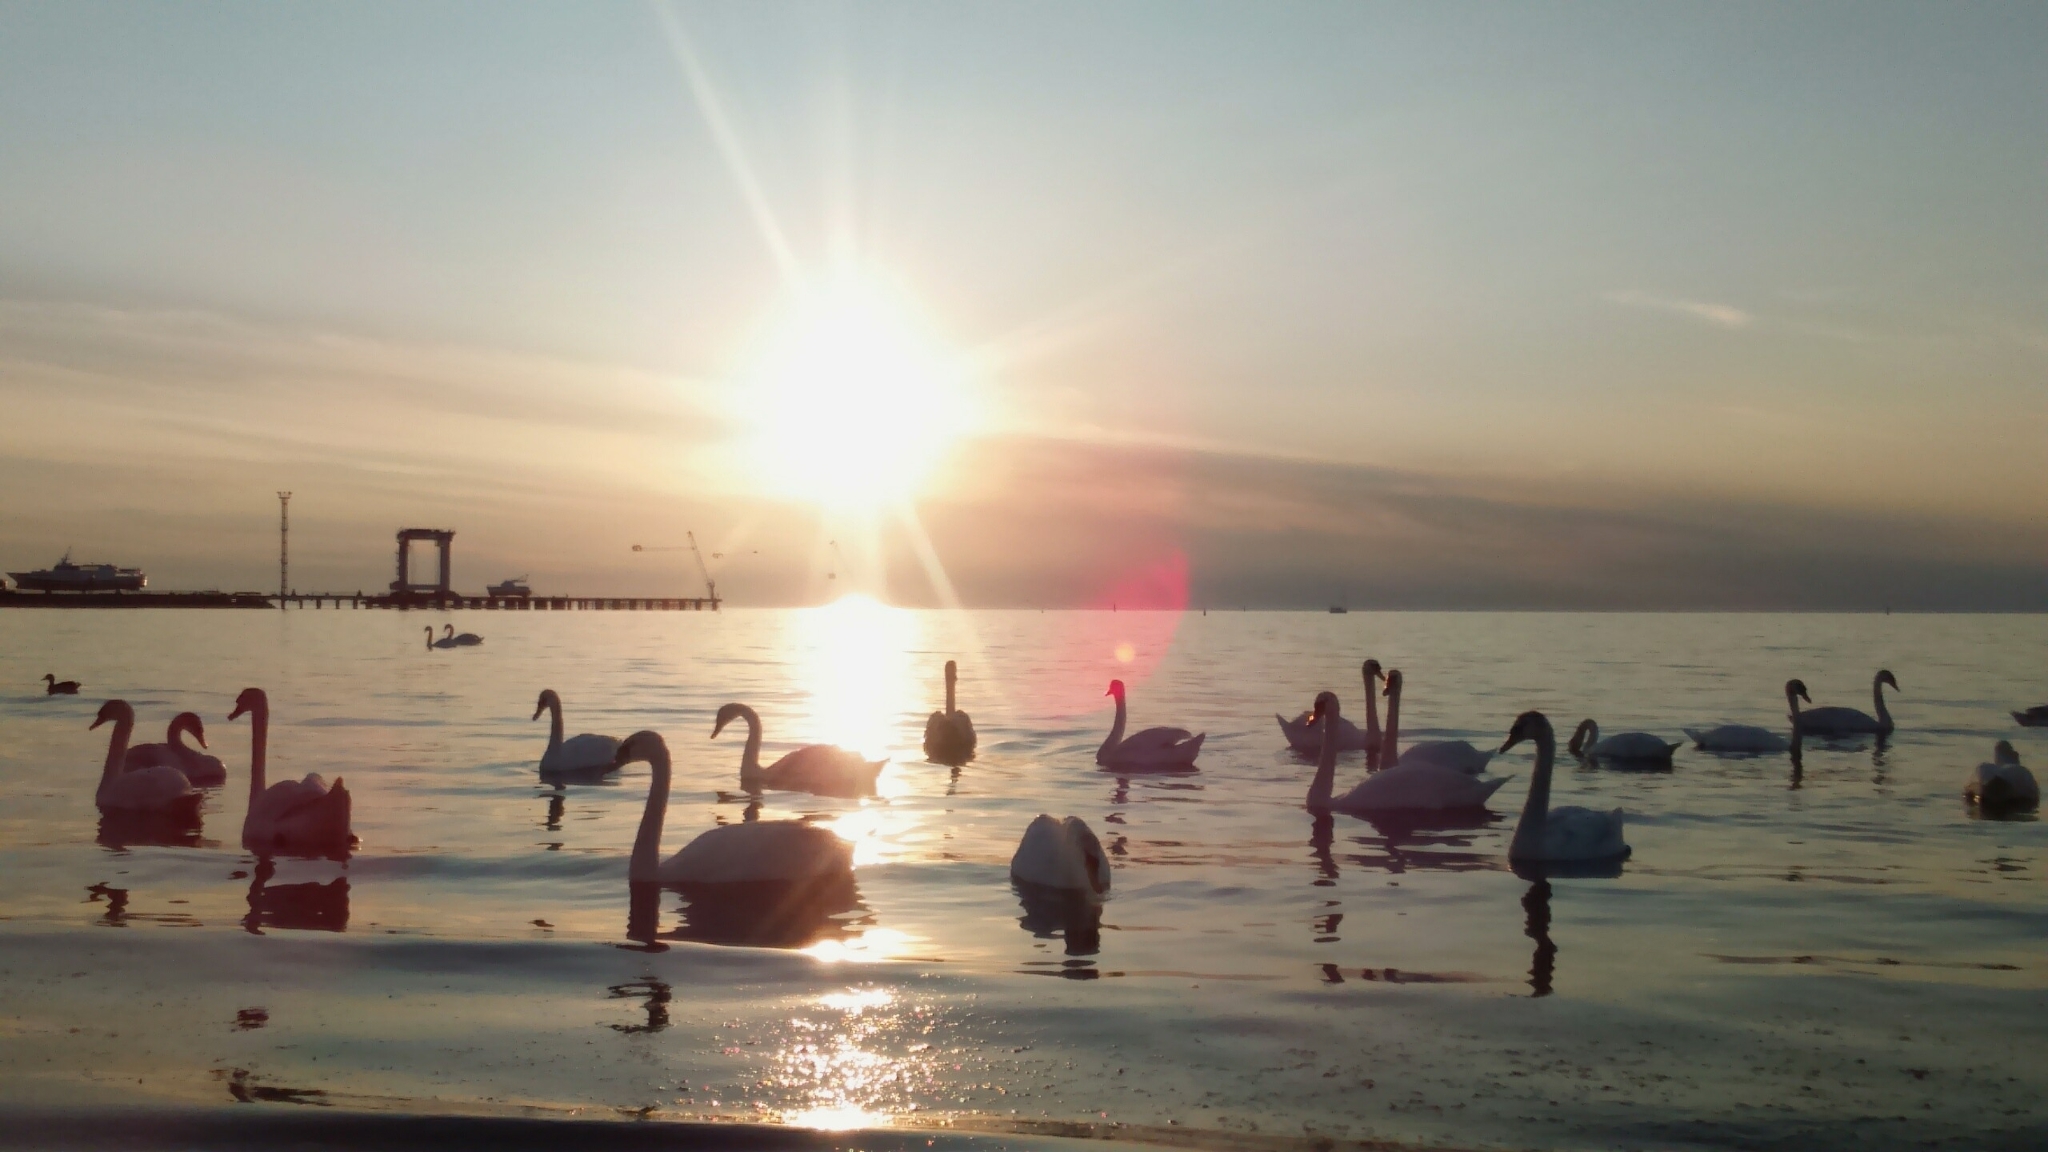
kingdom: Animalia
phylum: Chordata
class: Aves
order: Anseriformes
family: Anatidae
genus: Cygnus
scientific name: Cygnus olor
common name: Mute swan
